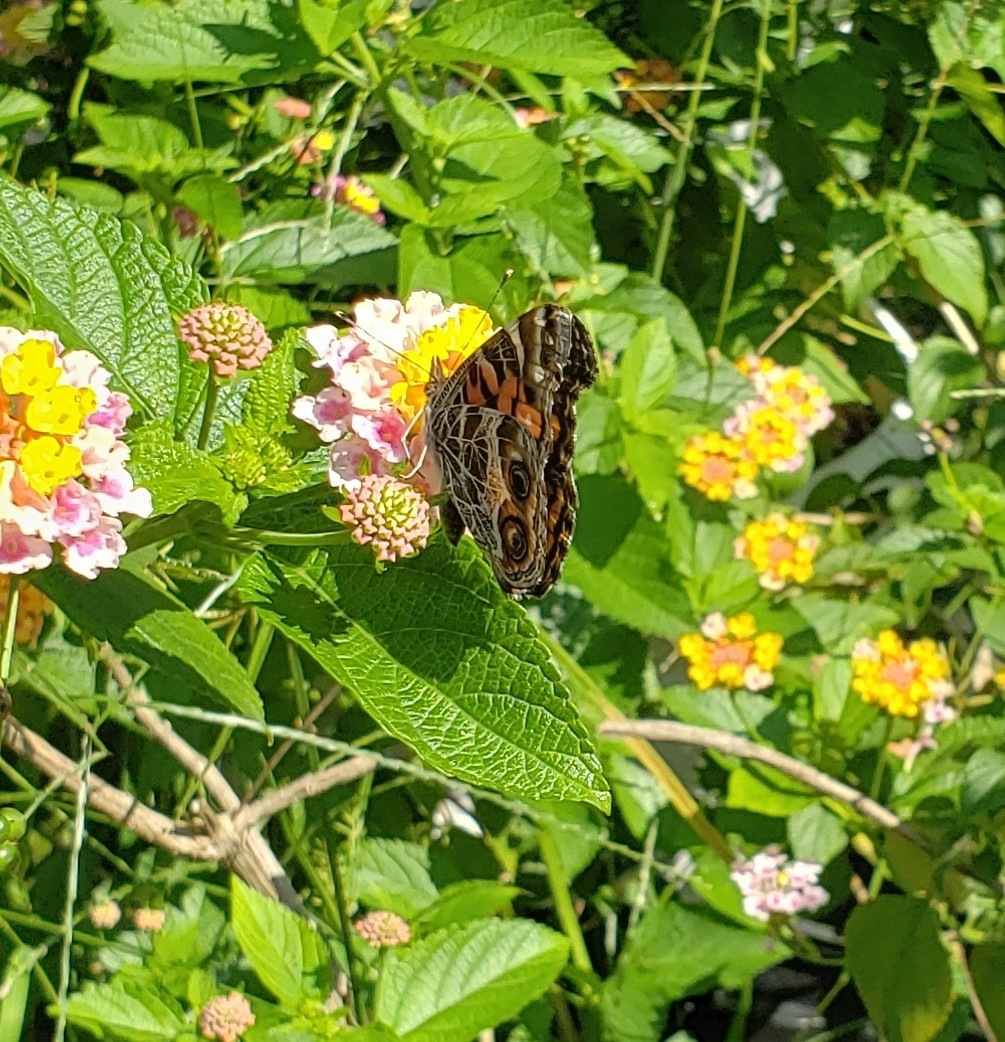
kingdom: Animalia
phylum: Arthropoda
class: Insecta
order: Lepidoptera
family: Nymphalidae
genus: Vanessa
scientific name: Vanessa virginiensis
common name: American lady
